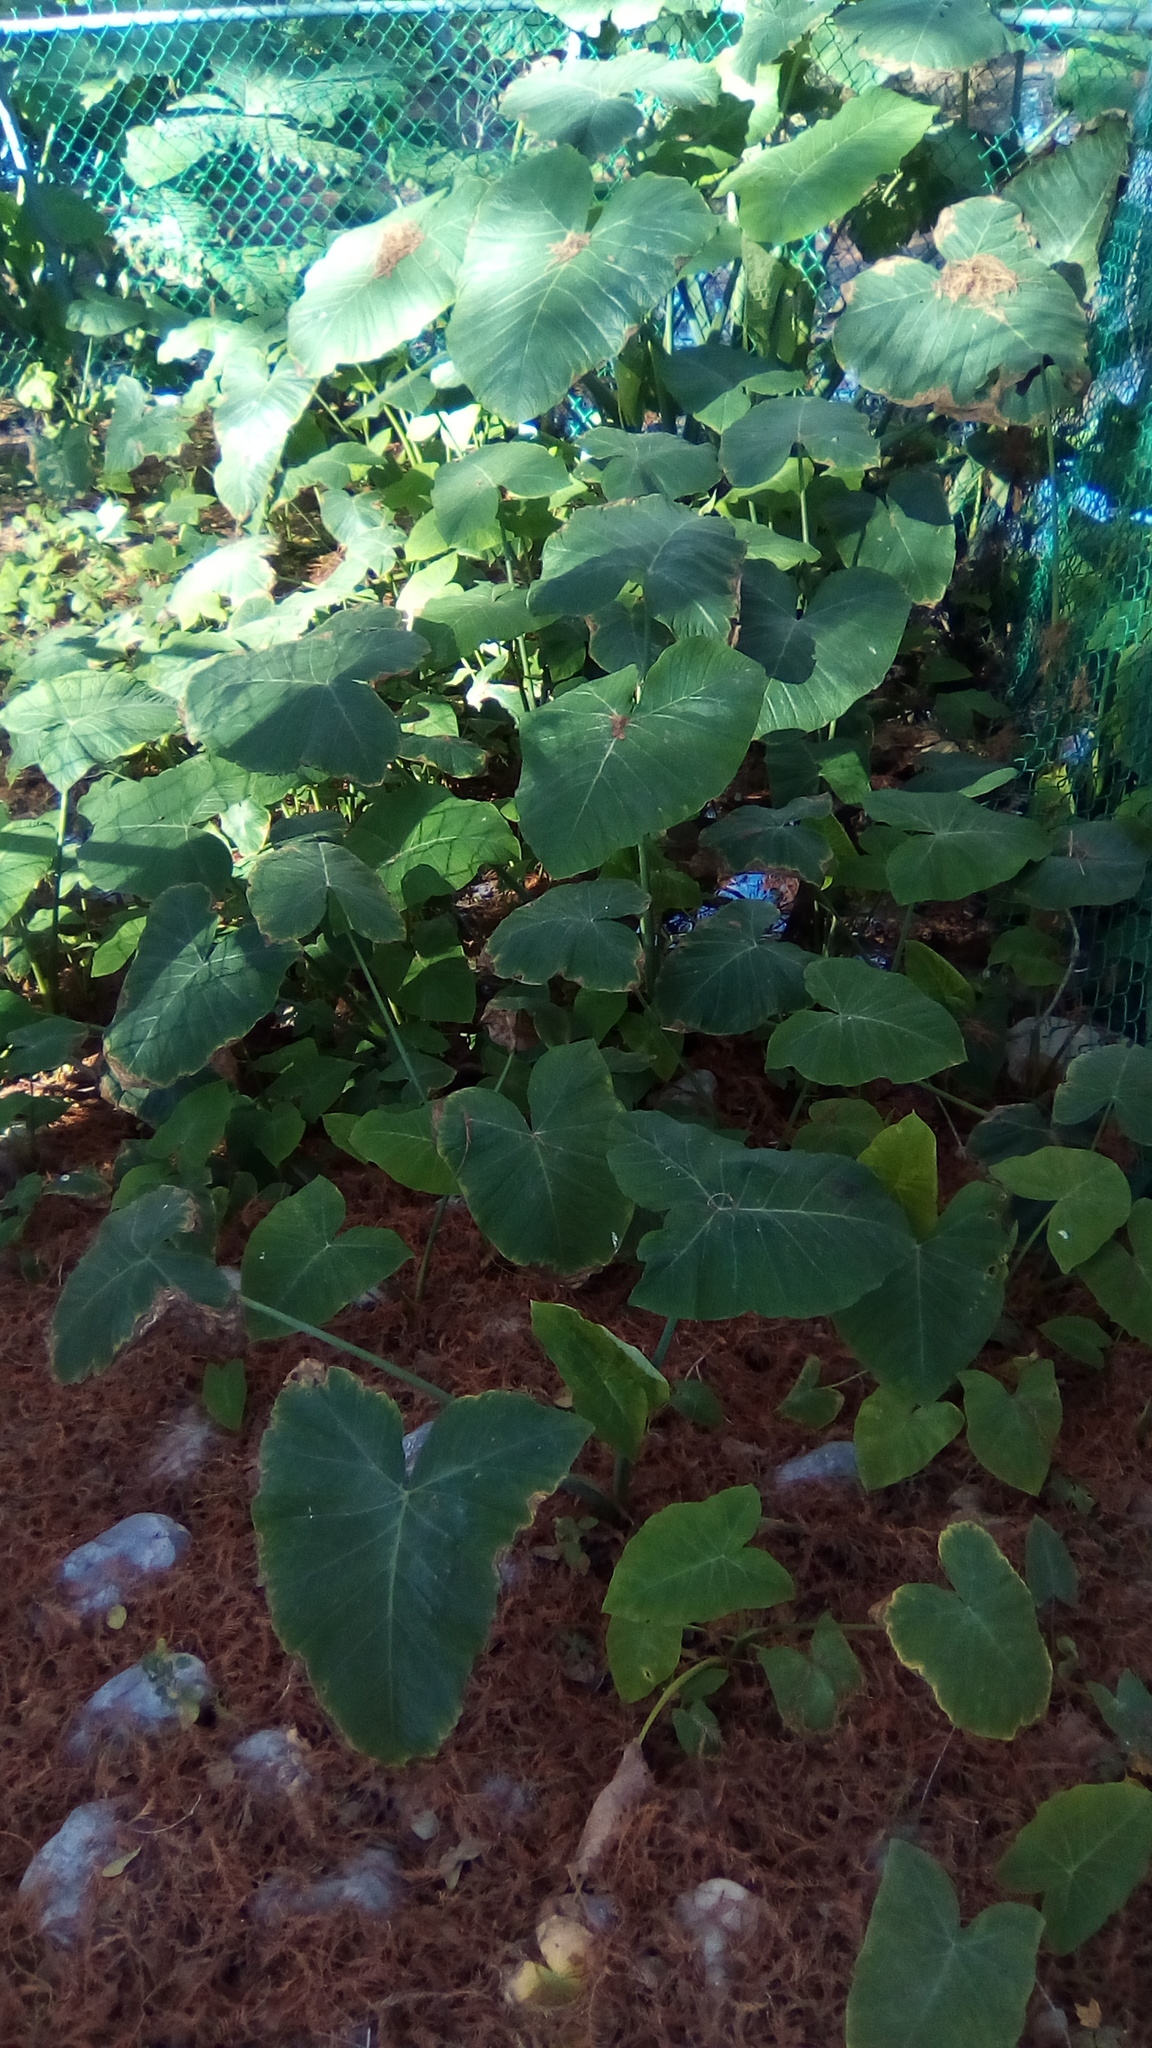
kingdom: Plantae
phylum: Tracheophyta
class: Liliopsida
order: Alismatales
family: Araceae
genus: Xanthosoma
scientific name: Xanthosoma robustum
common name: Capote
